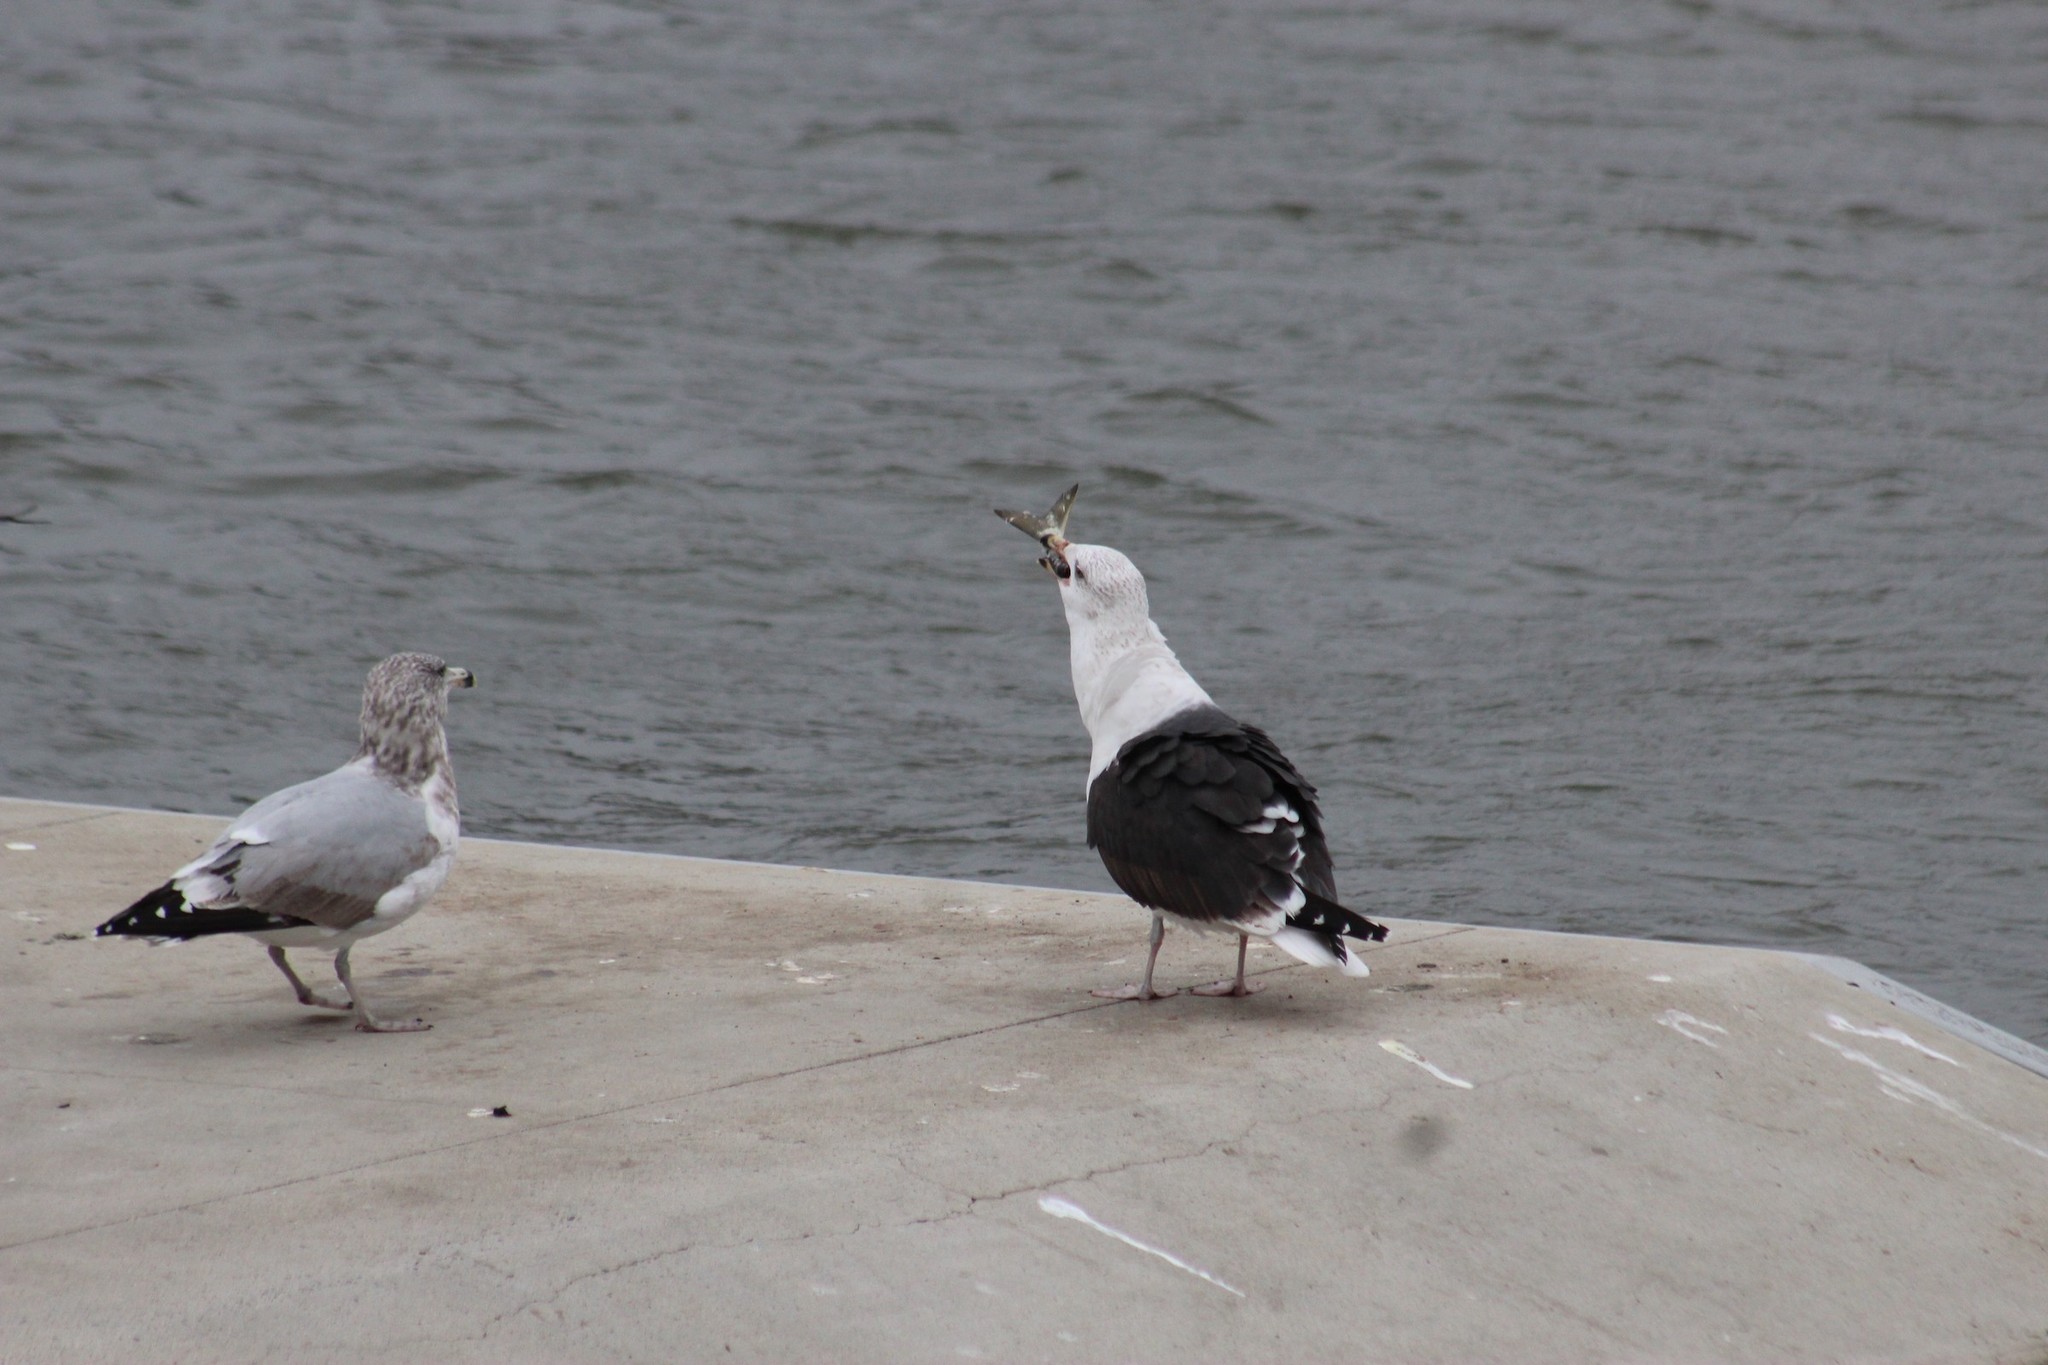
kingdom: Animalia
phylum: Chordata
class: Aves
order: Charadriiformes
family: Laridae
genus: Larus
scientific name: Larus marinus
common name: Great black-backed gull
